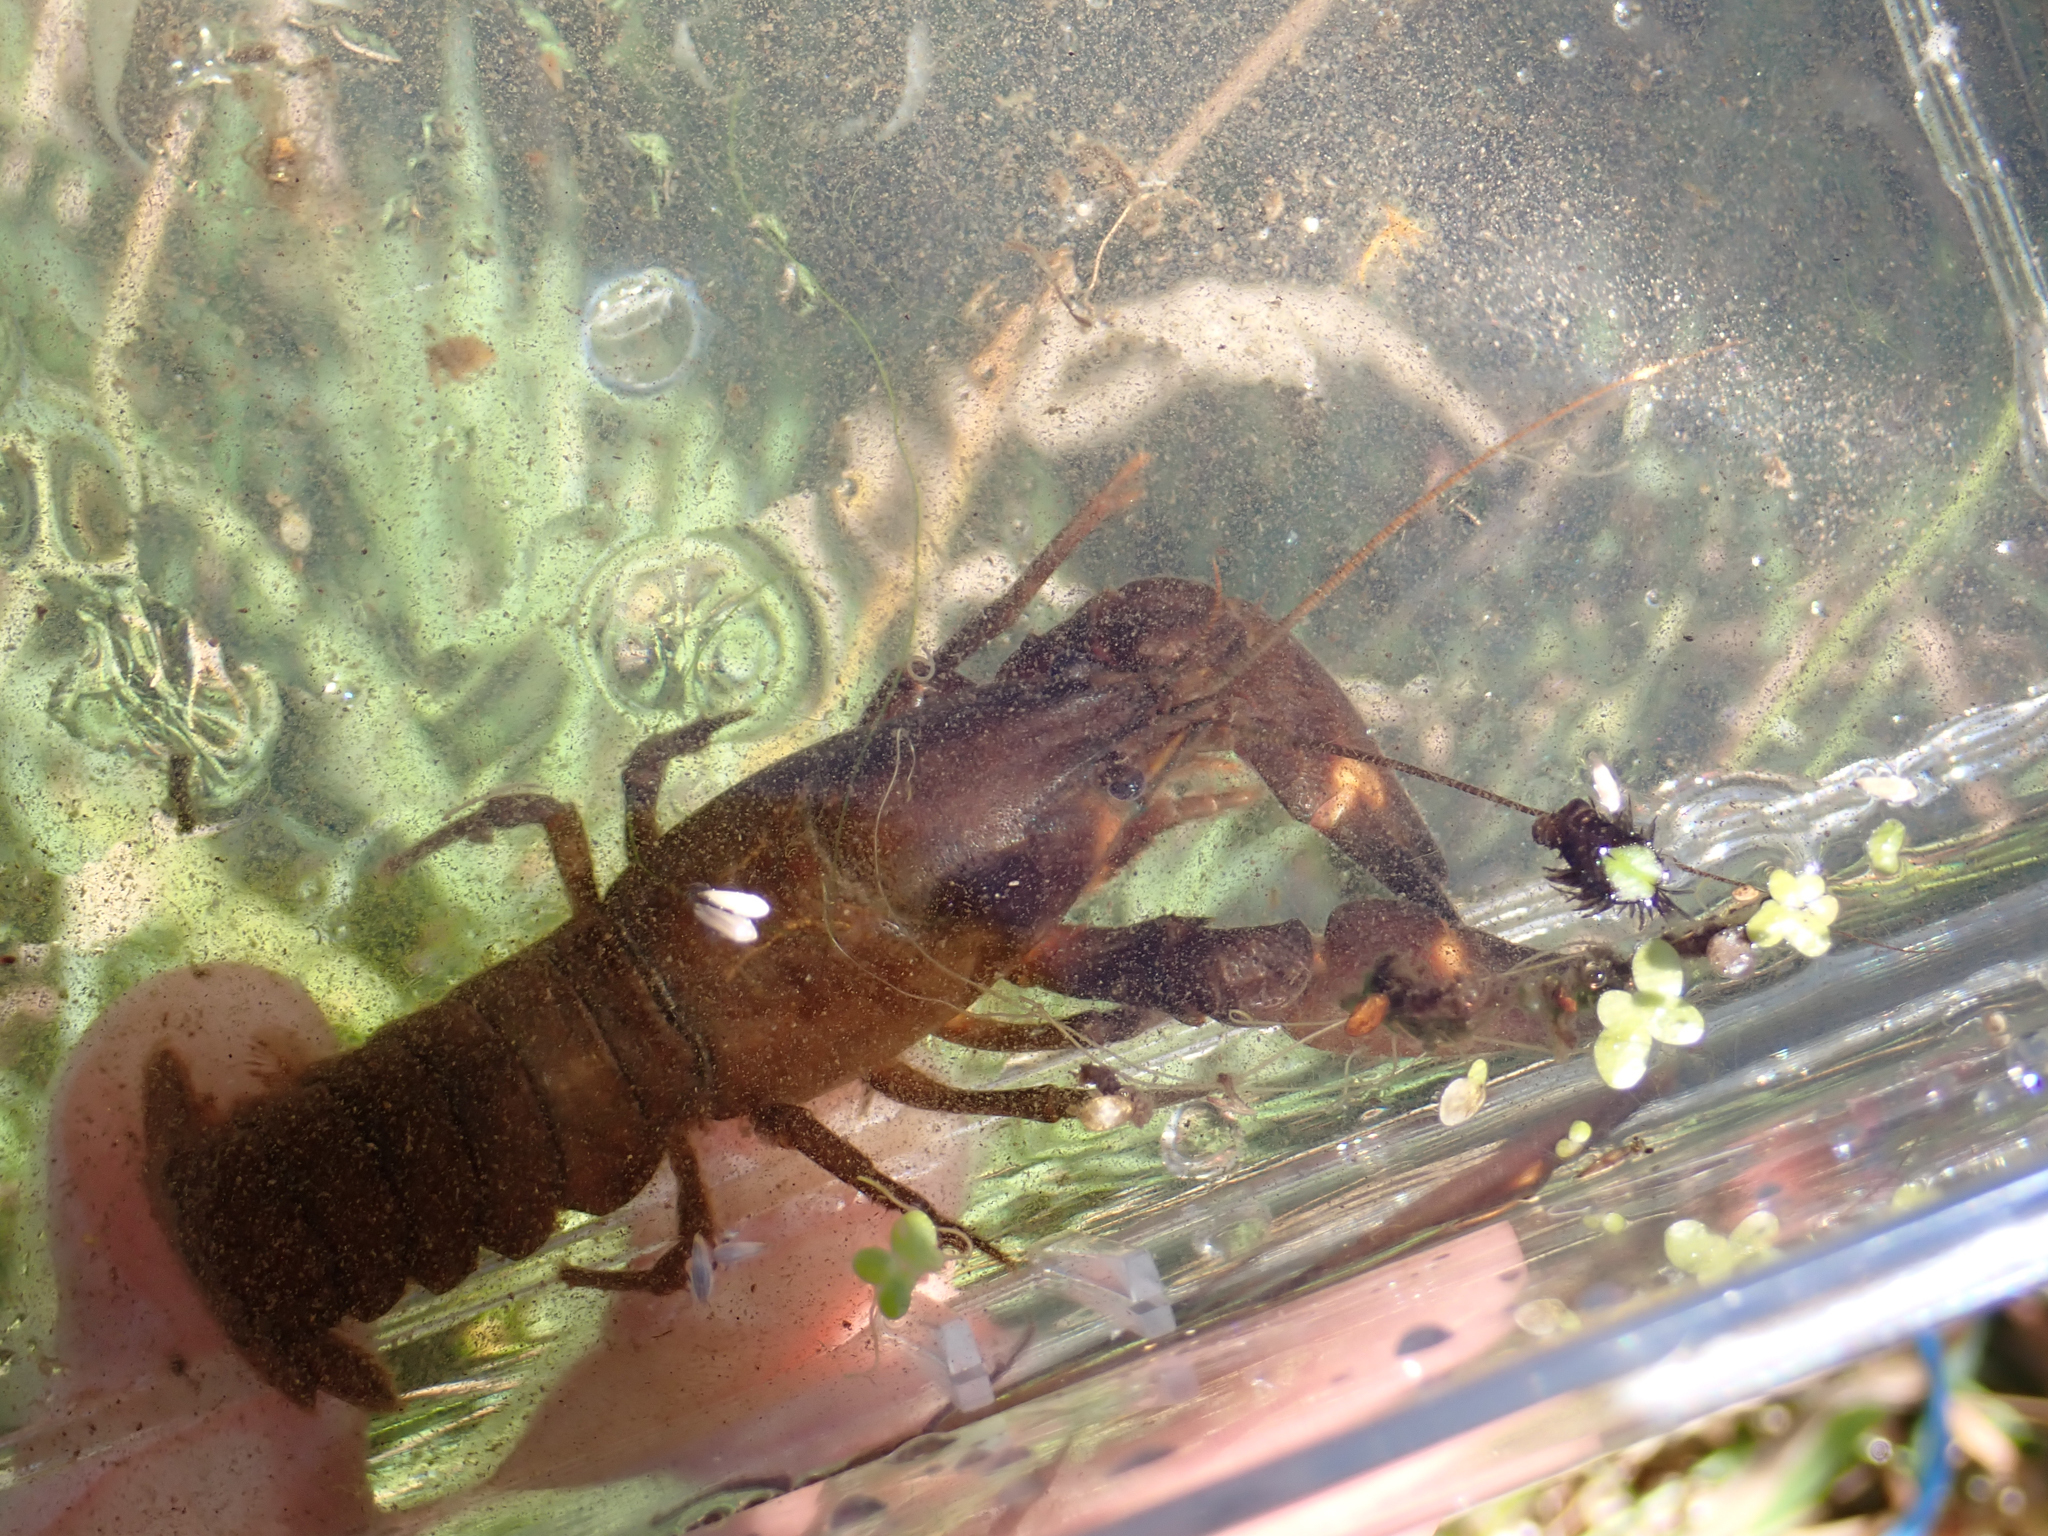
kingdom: Animalia
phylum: Arthropoda
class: Malacostraca
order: Decapoda
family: Astacidae
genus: Pacifastacus
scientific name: Pacifastacus leniusculus
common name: Signal crayfish
